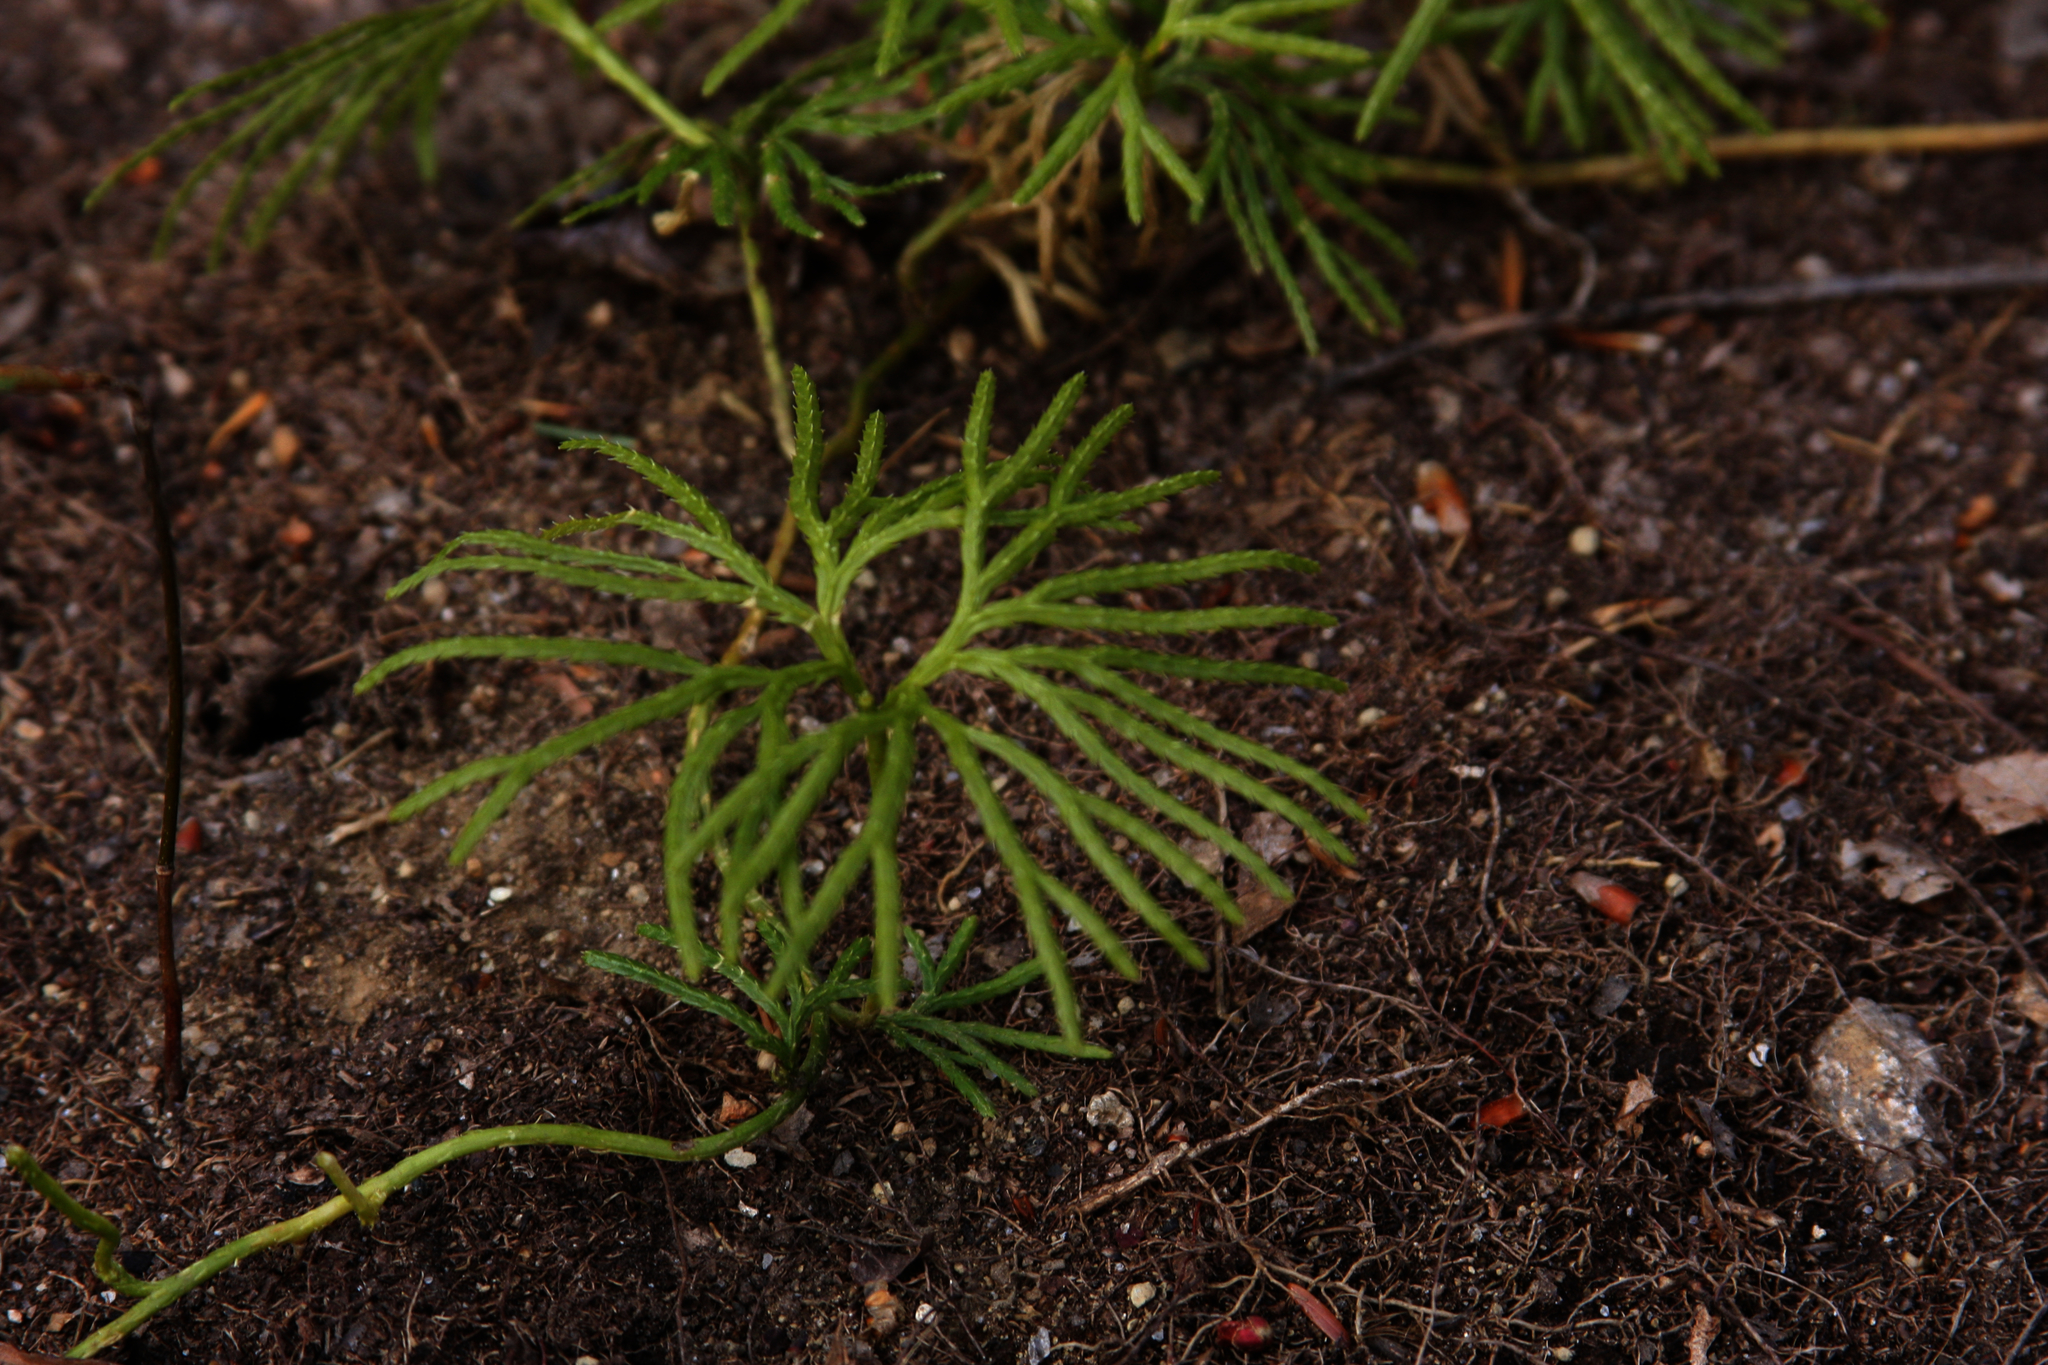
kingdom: Plantae
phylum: Tracheophyta
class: Lycopodiopsida
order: Lycopodiales
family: Lycopodiaceae
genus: Diphasiastrum
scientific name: Diphasiastrum digitatum
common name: Southern running-pine
